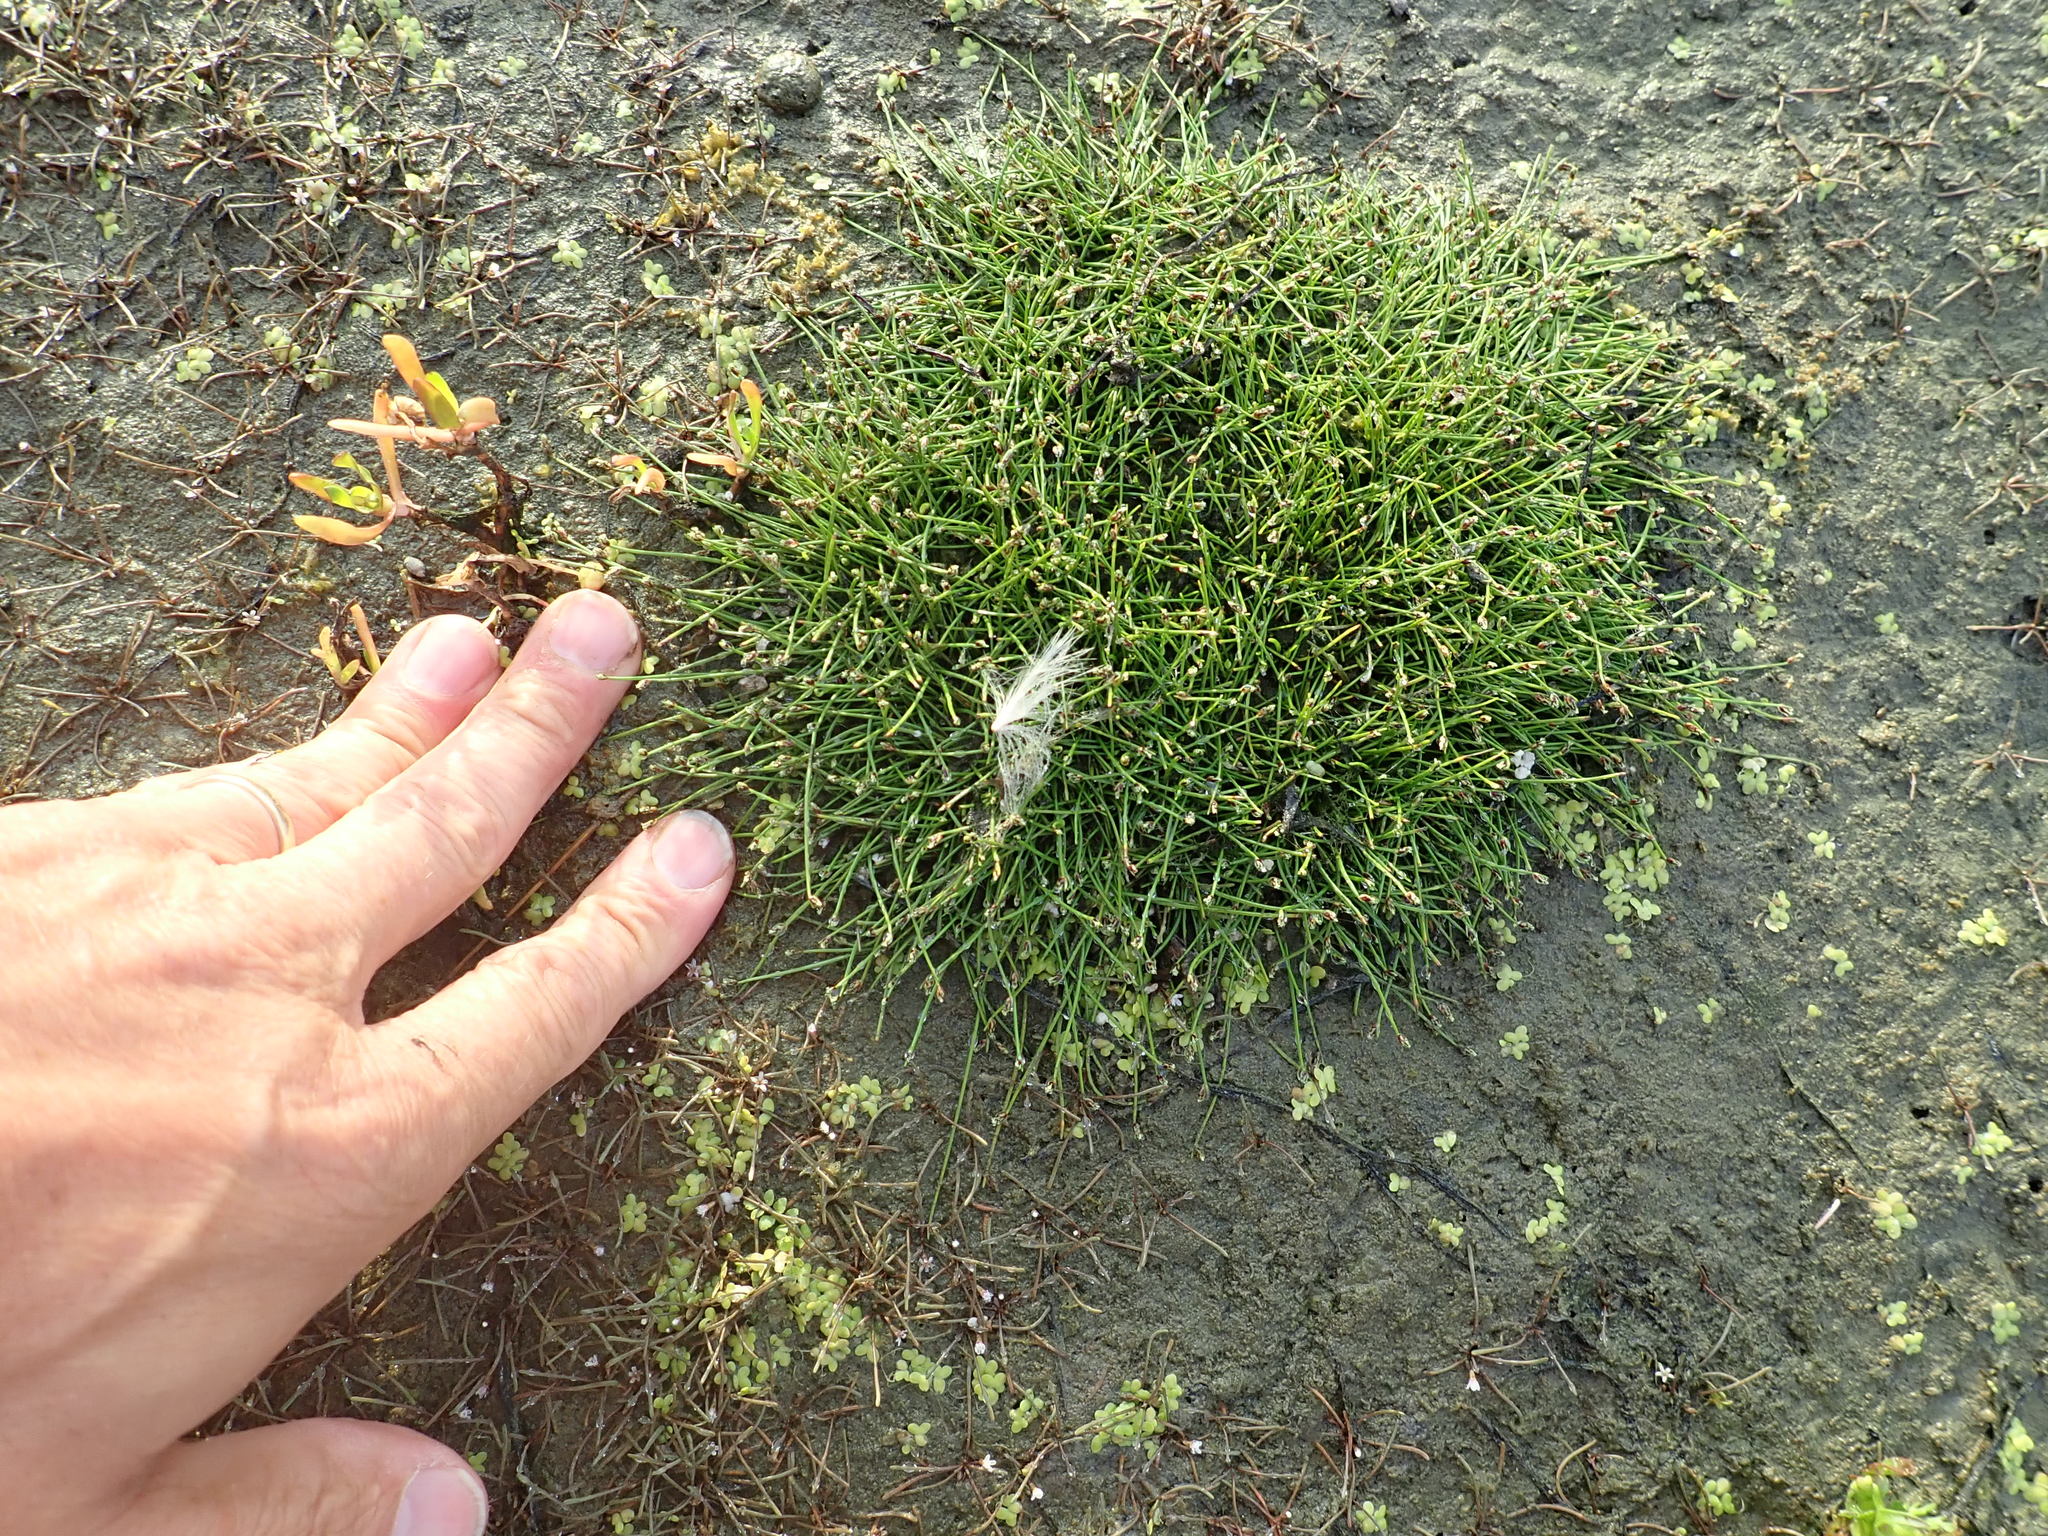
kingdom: Plantae
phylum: Tracheophyta
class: Liliopsida
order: Poales
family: Cyperaceae
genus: Isolepis
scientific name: Isolepis cernua
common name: Slender club-rush
